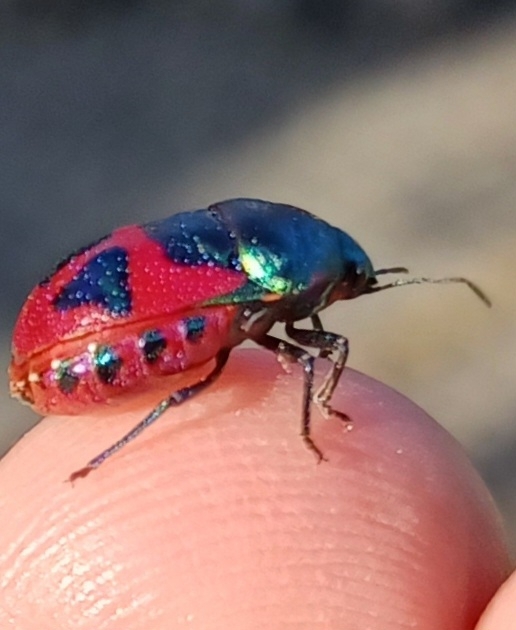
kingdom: Animalia
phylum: Arthropoda
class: Insecta
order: Hemiptera
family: Scutelleridae
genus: Choerocoris
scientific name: Choerocoris paganus
